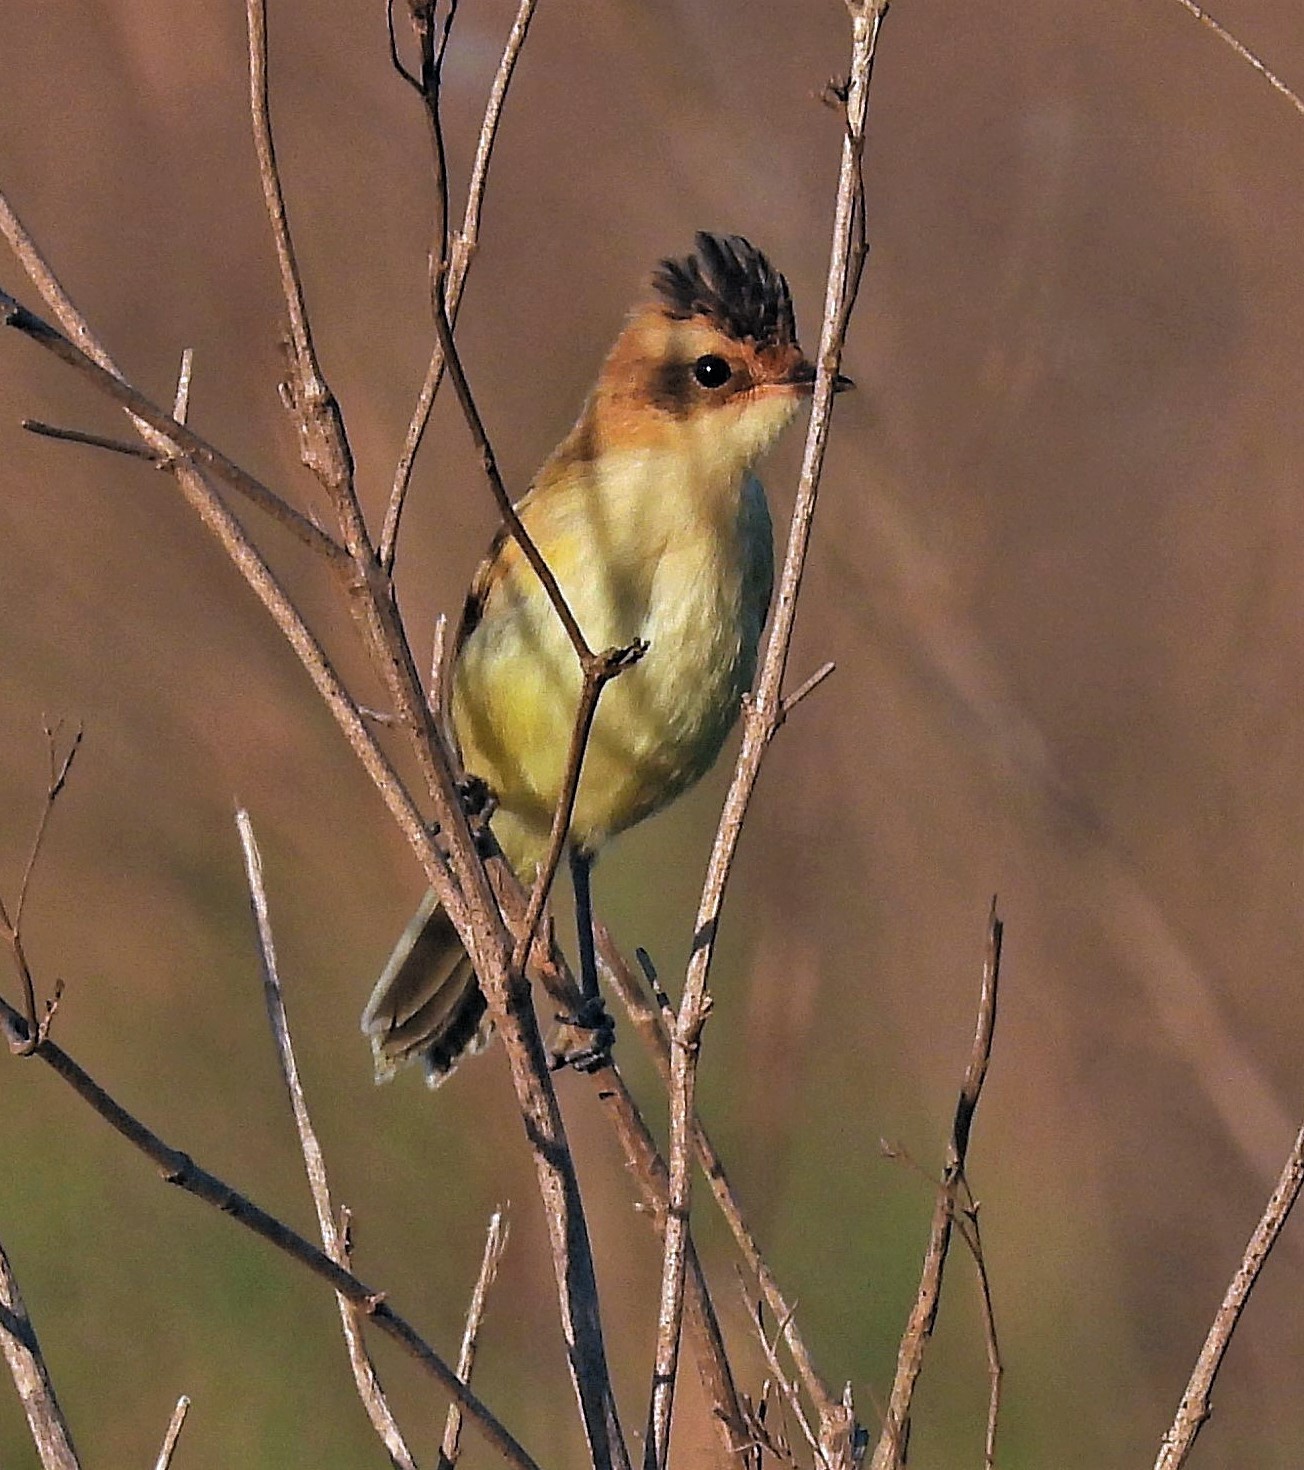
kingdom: Animalia
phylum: Chordata
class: Aves
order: Passeriformes
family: Tyrannidae
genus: Pseudocolopteryx
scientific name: Pseudocolopteryx sclateri
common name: Crested doradito
